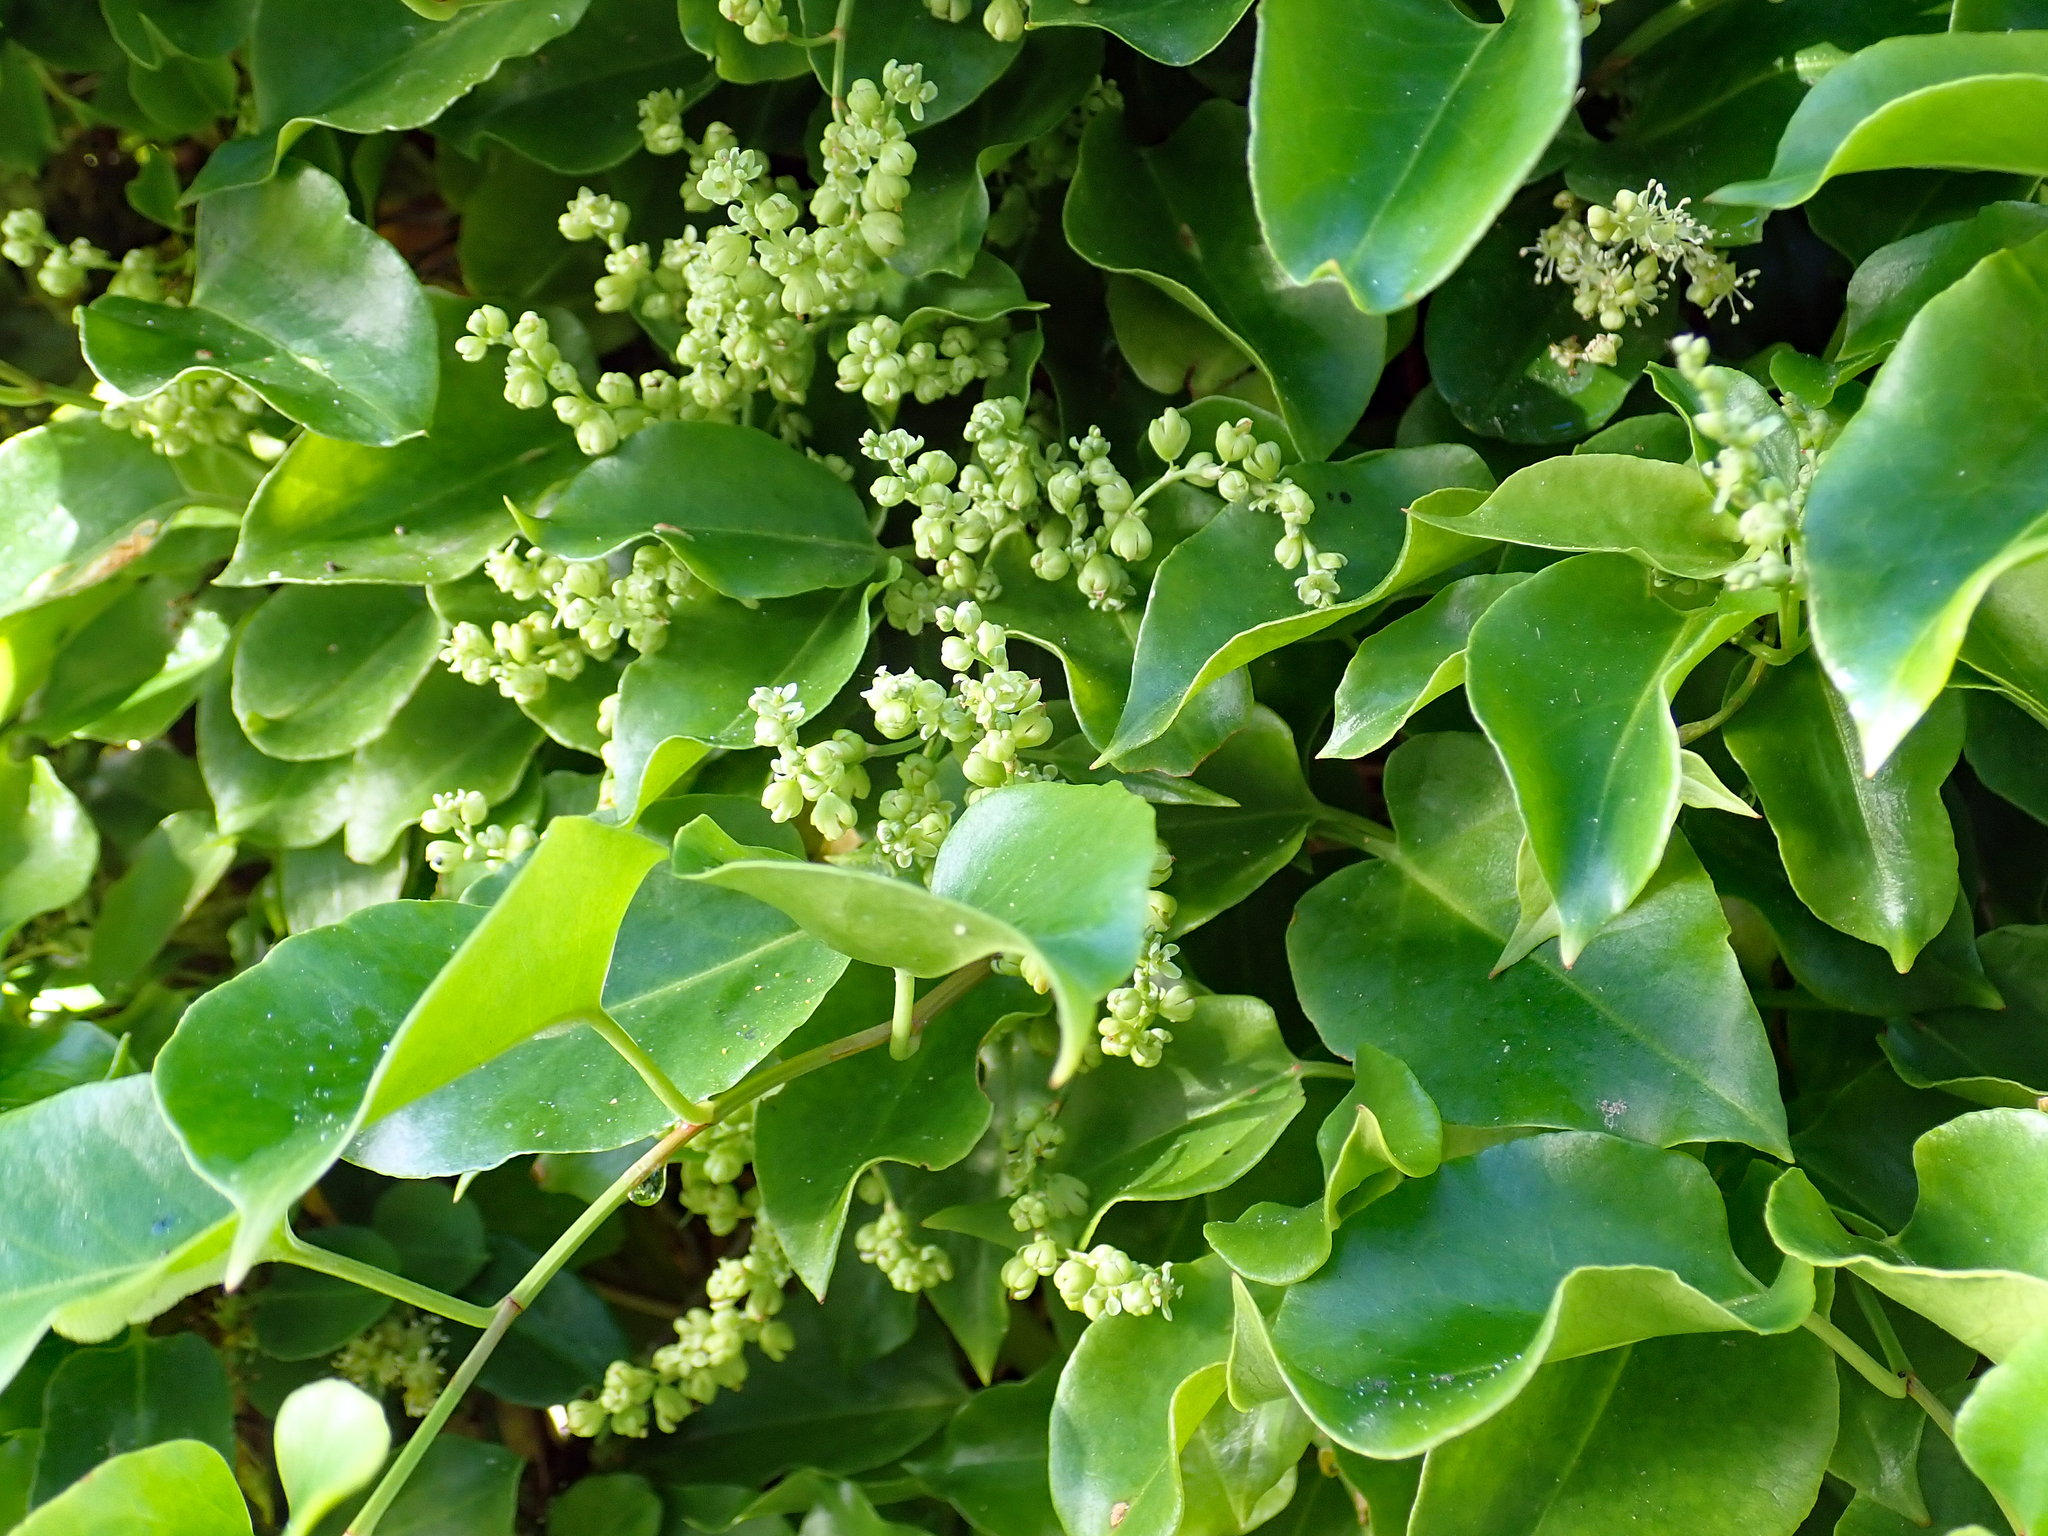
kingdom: Plantae
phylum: Tracheophyta
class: Magnoliopsida
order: Caryophyllales
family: Polygonaceae
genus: Muehlenbeckia
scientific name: Muehlenbeckia australis
